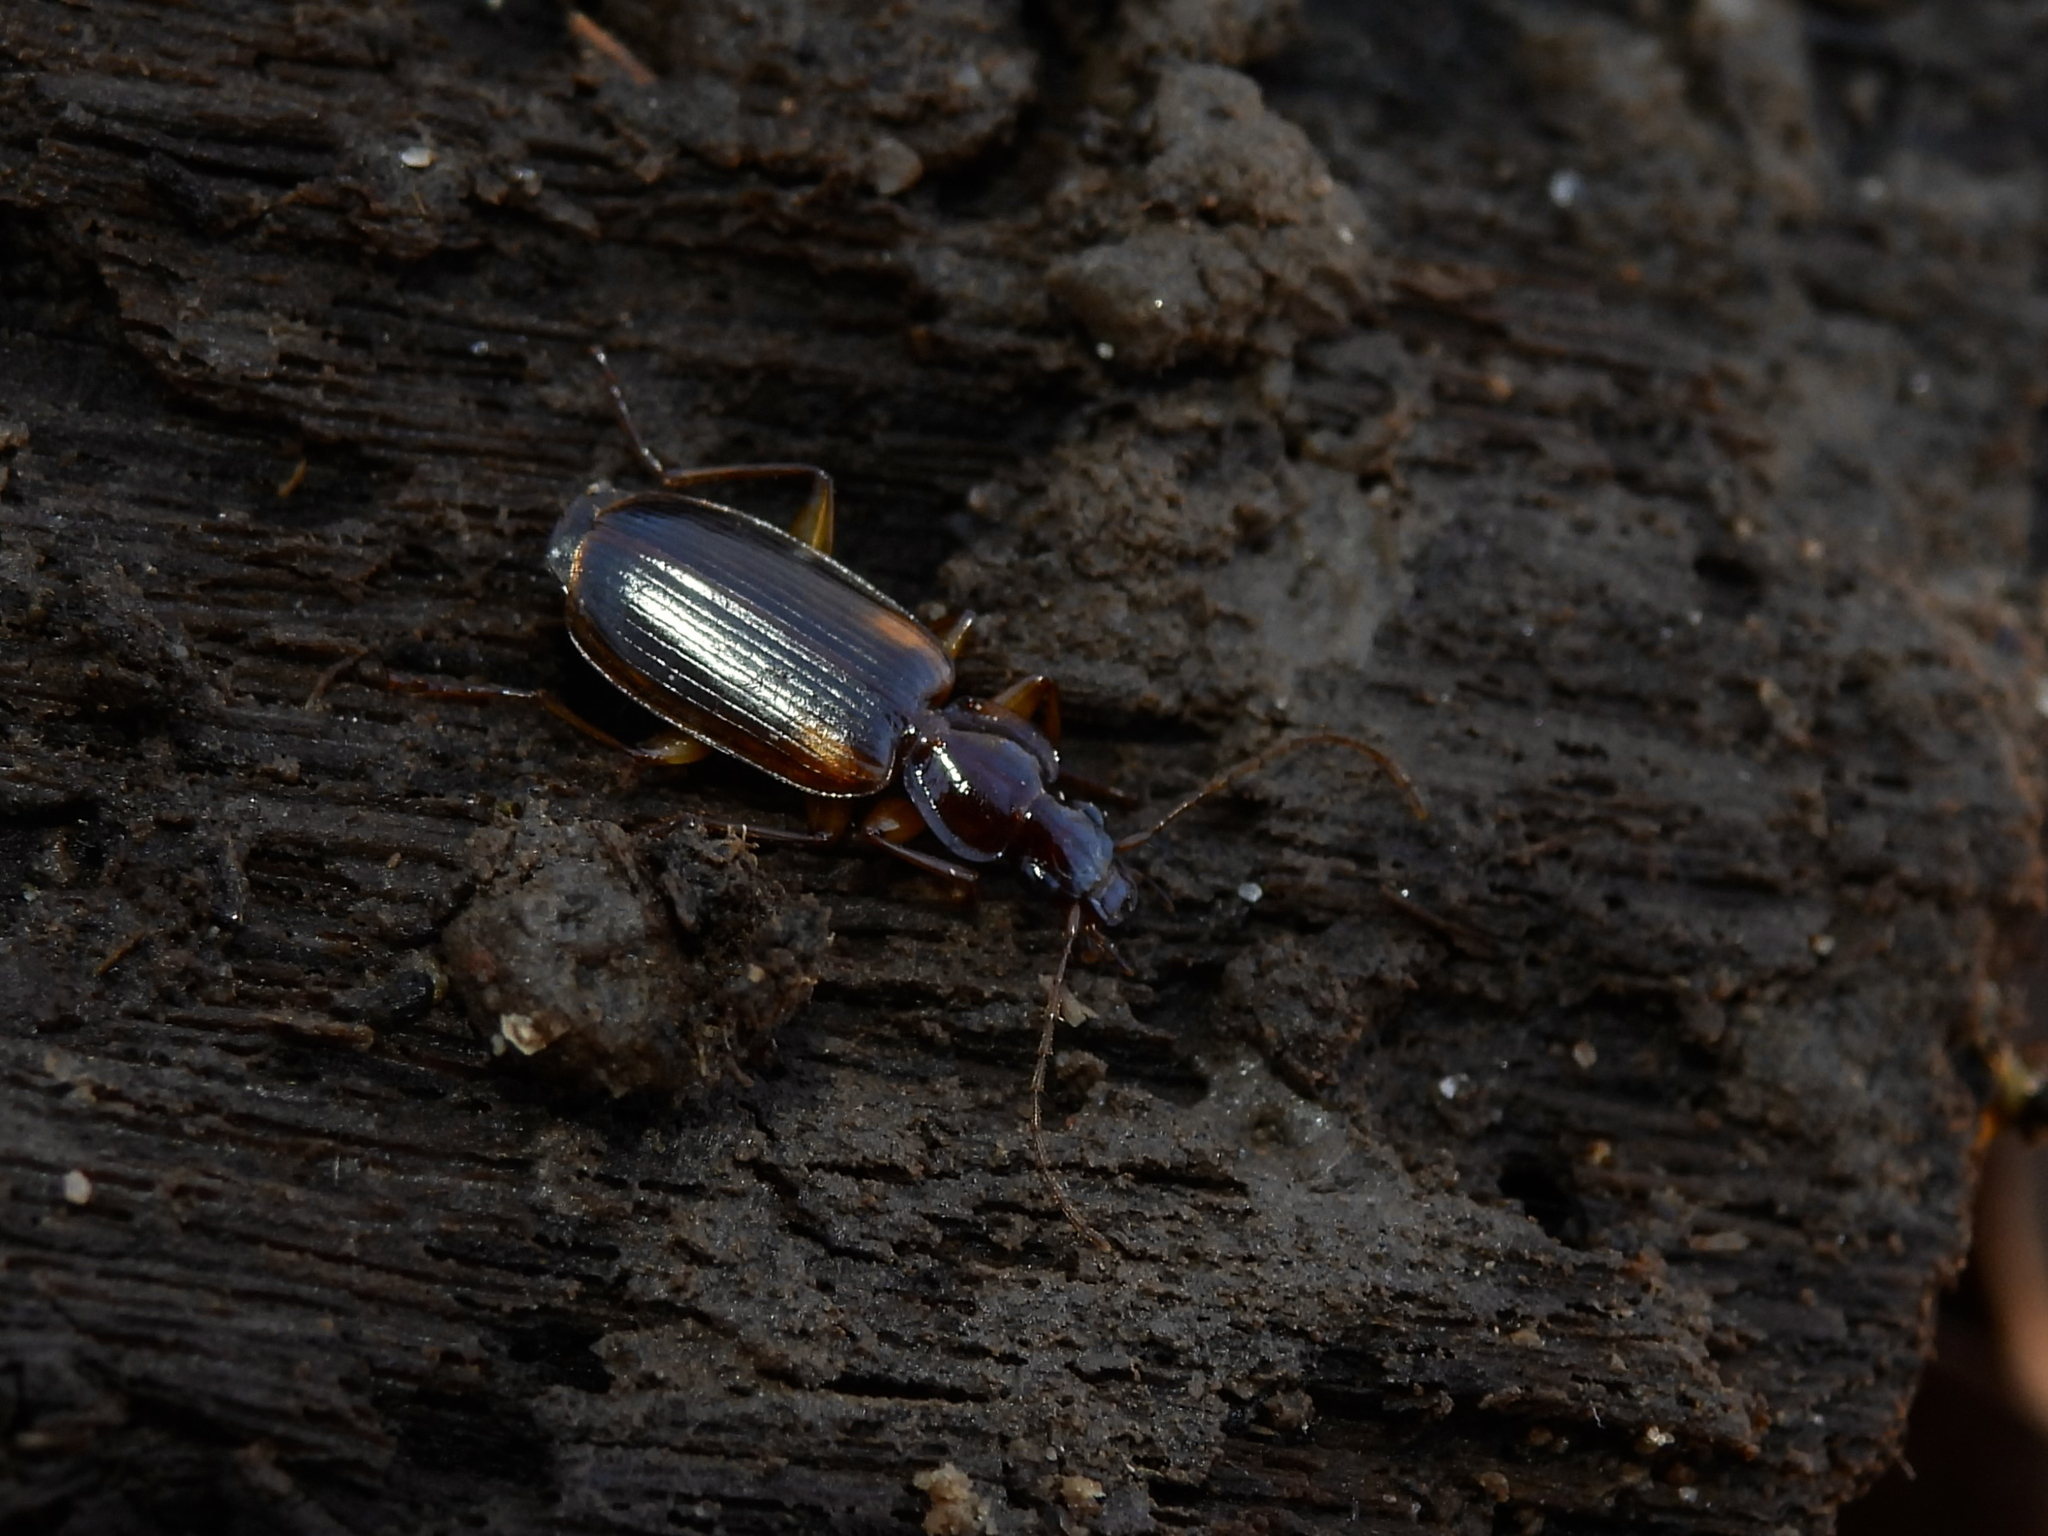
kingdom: Animalia
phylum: Arthropoda
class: Insecta
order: Coleoptera
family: Carabidae
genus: Pinacodera
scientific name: Pinacodera limbata
